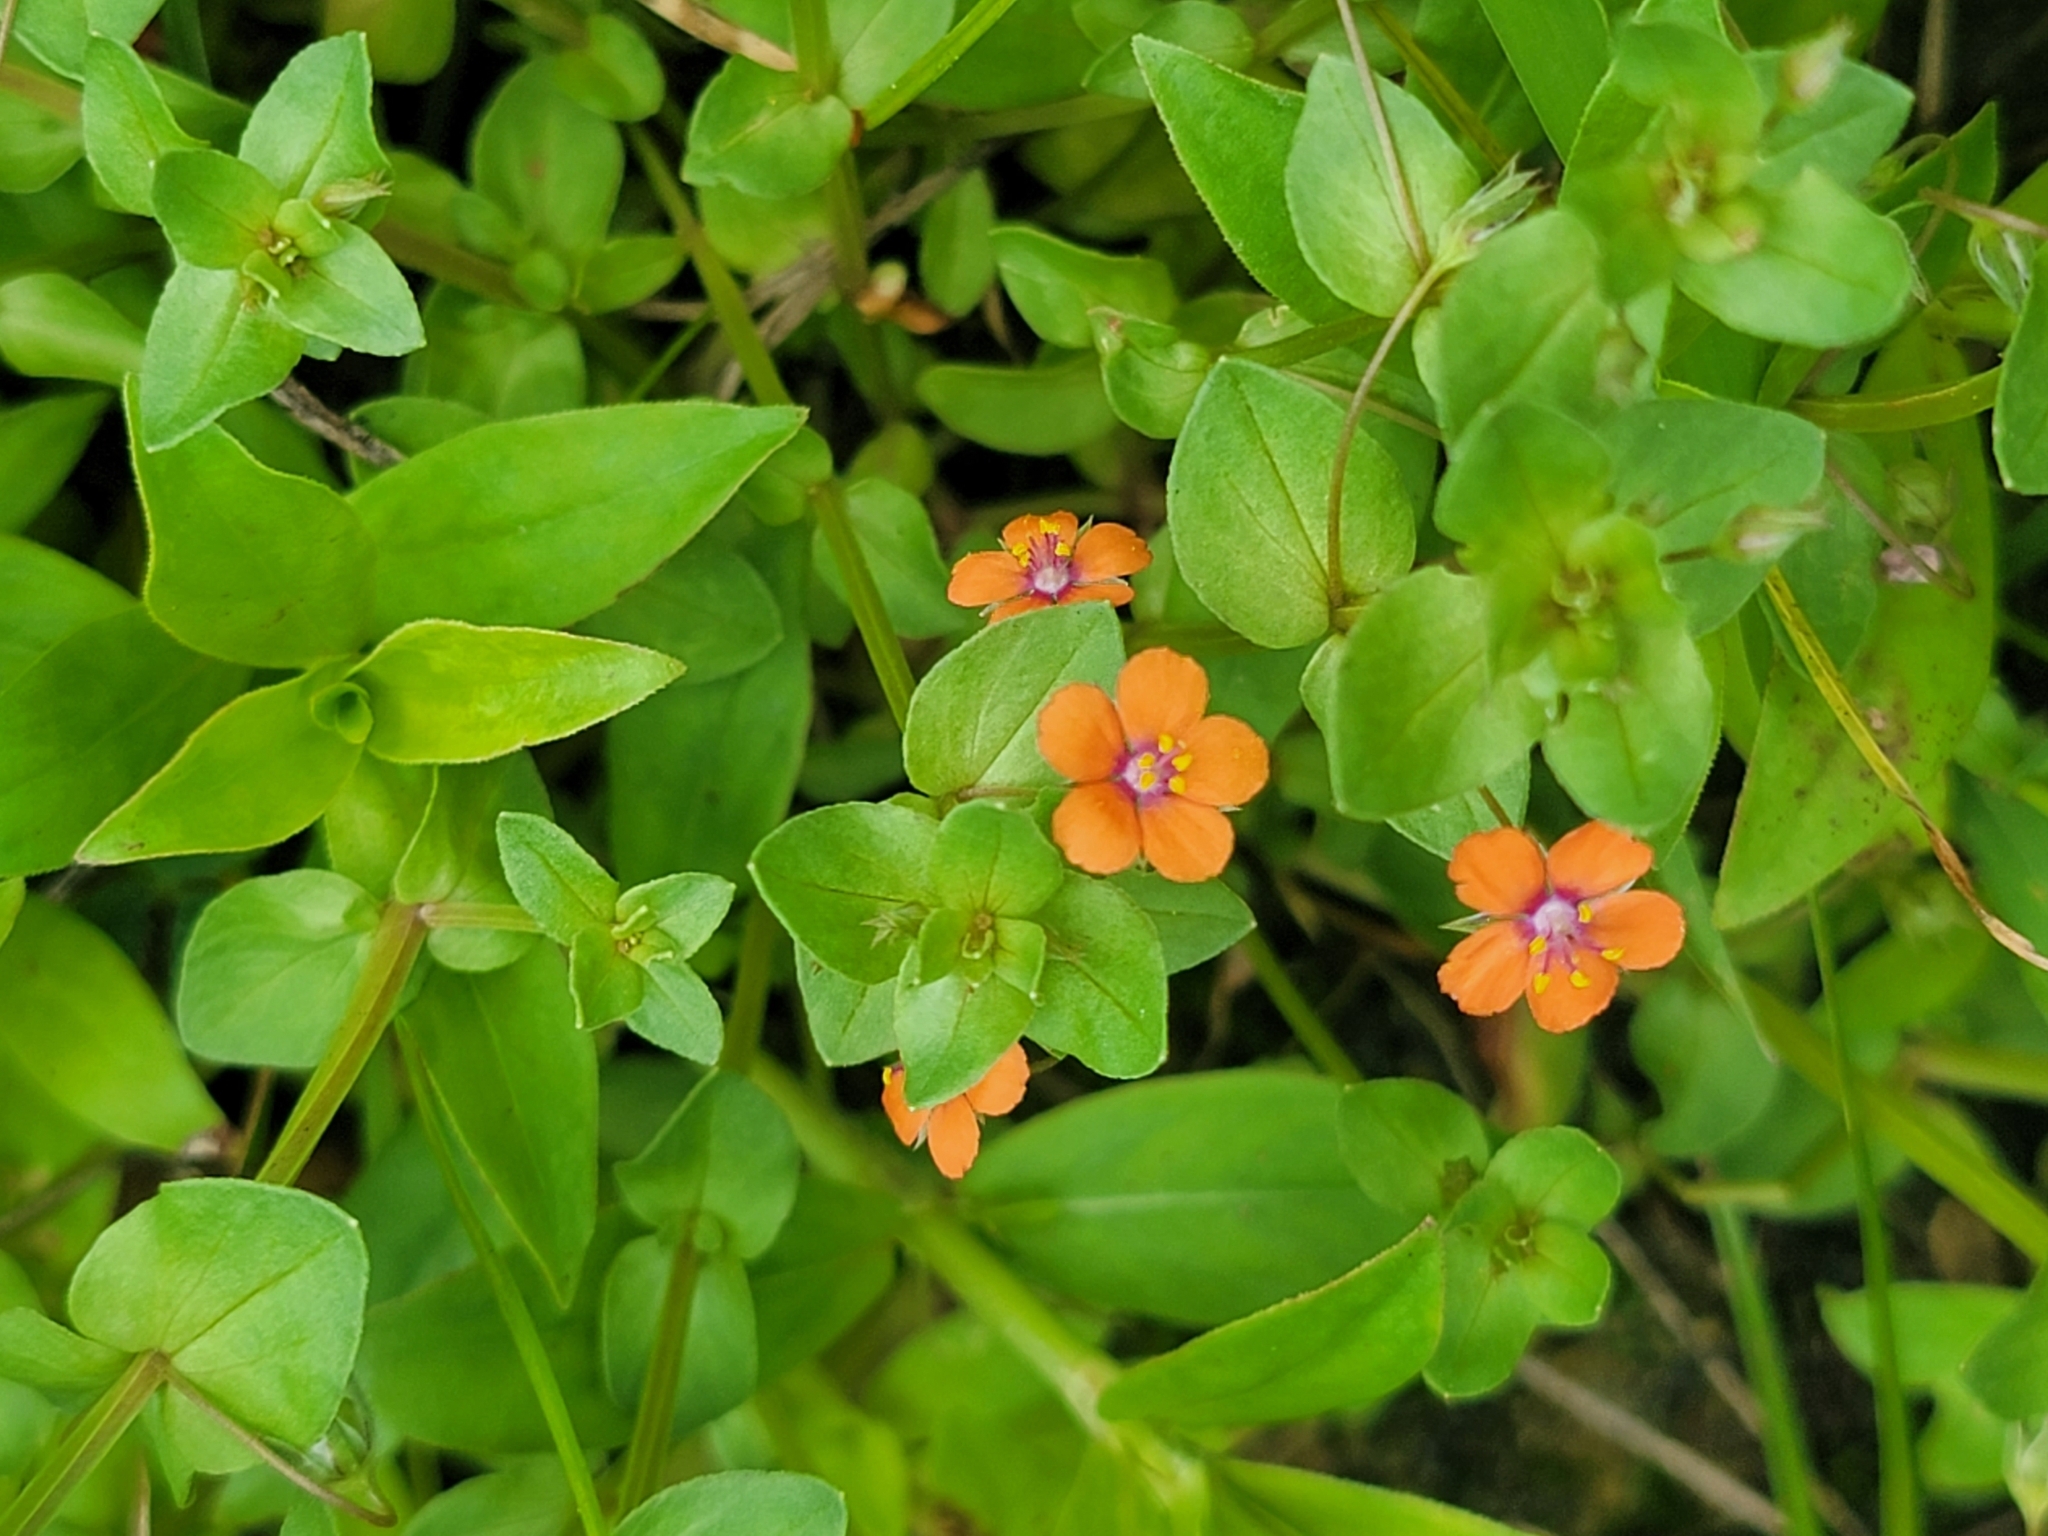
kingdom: Plantae
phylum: Tracheophyta
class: Magnoliopsida
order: Ericales
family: Primulaceae
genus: Lysimachia
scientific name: Lysimachia arvensis
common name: Scarlet pimpernel
